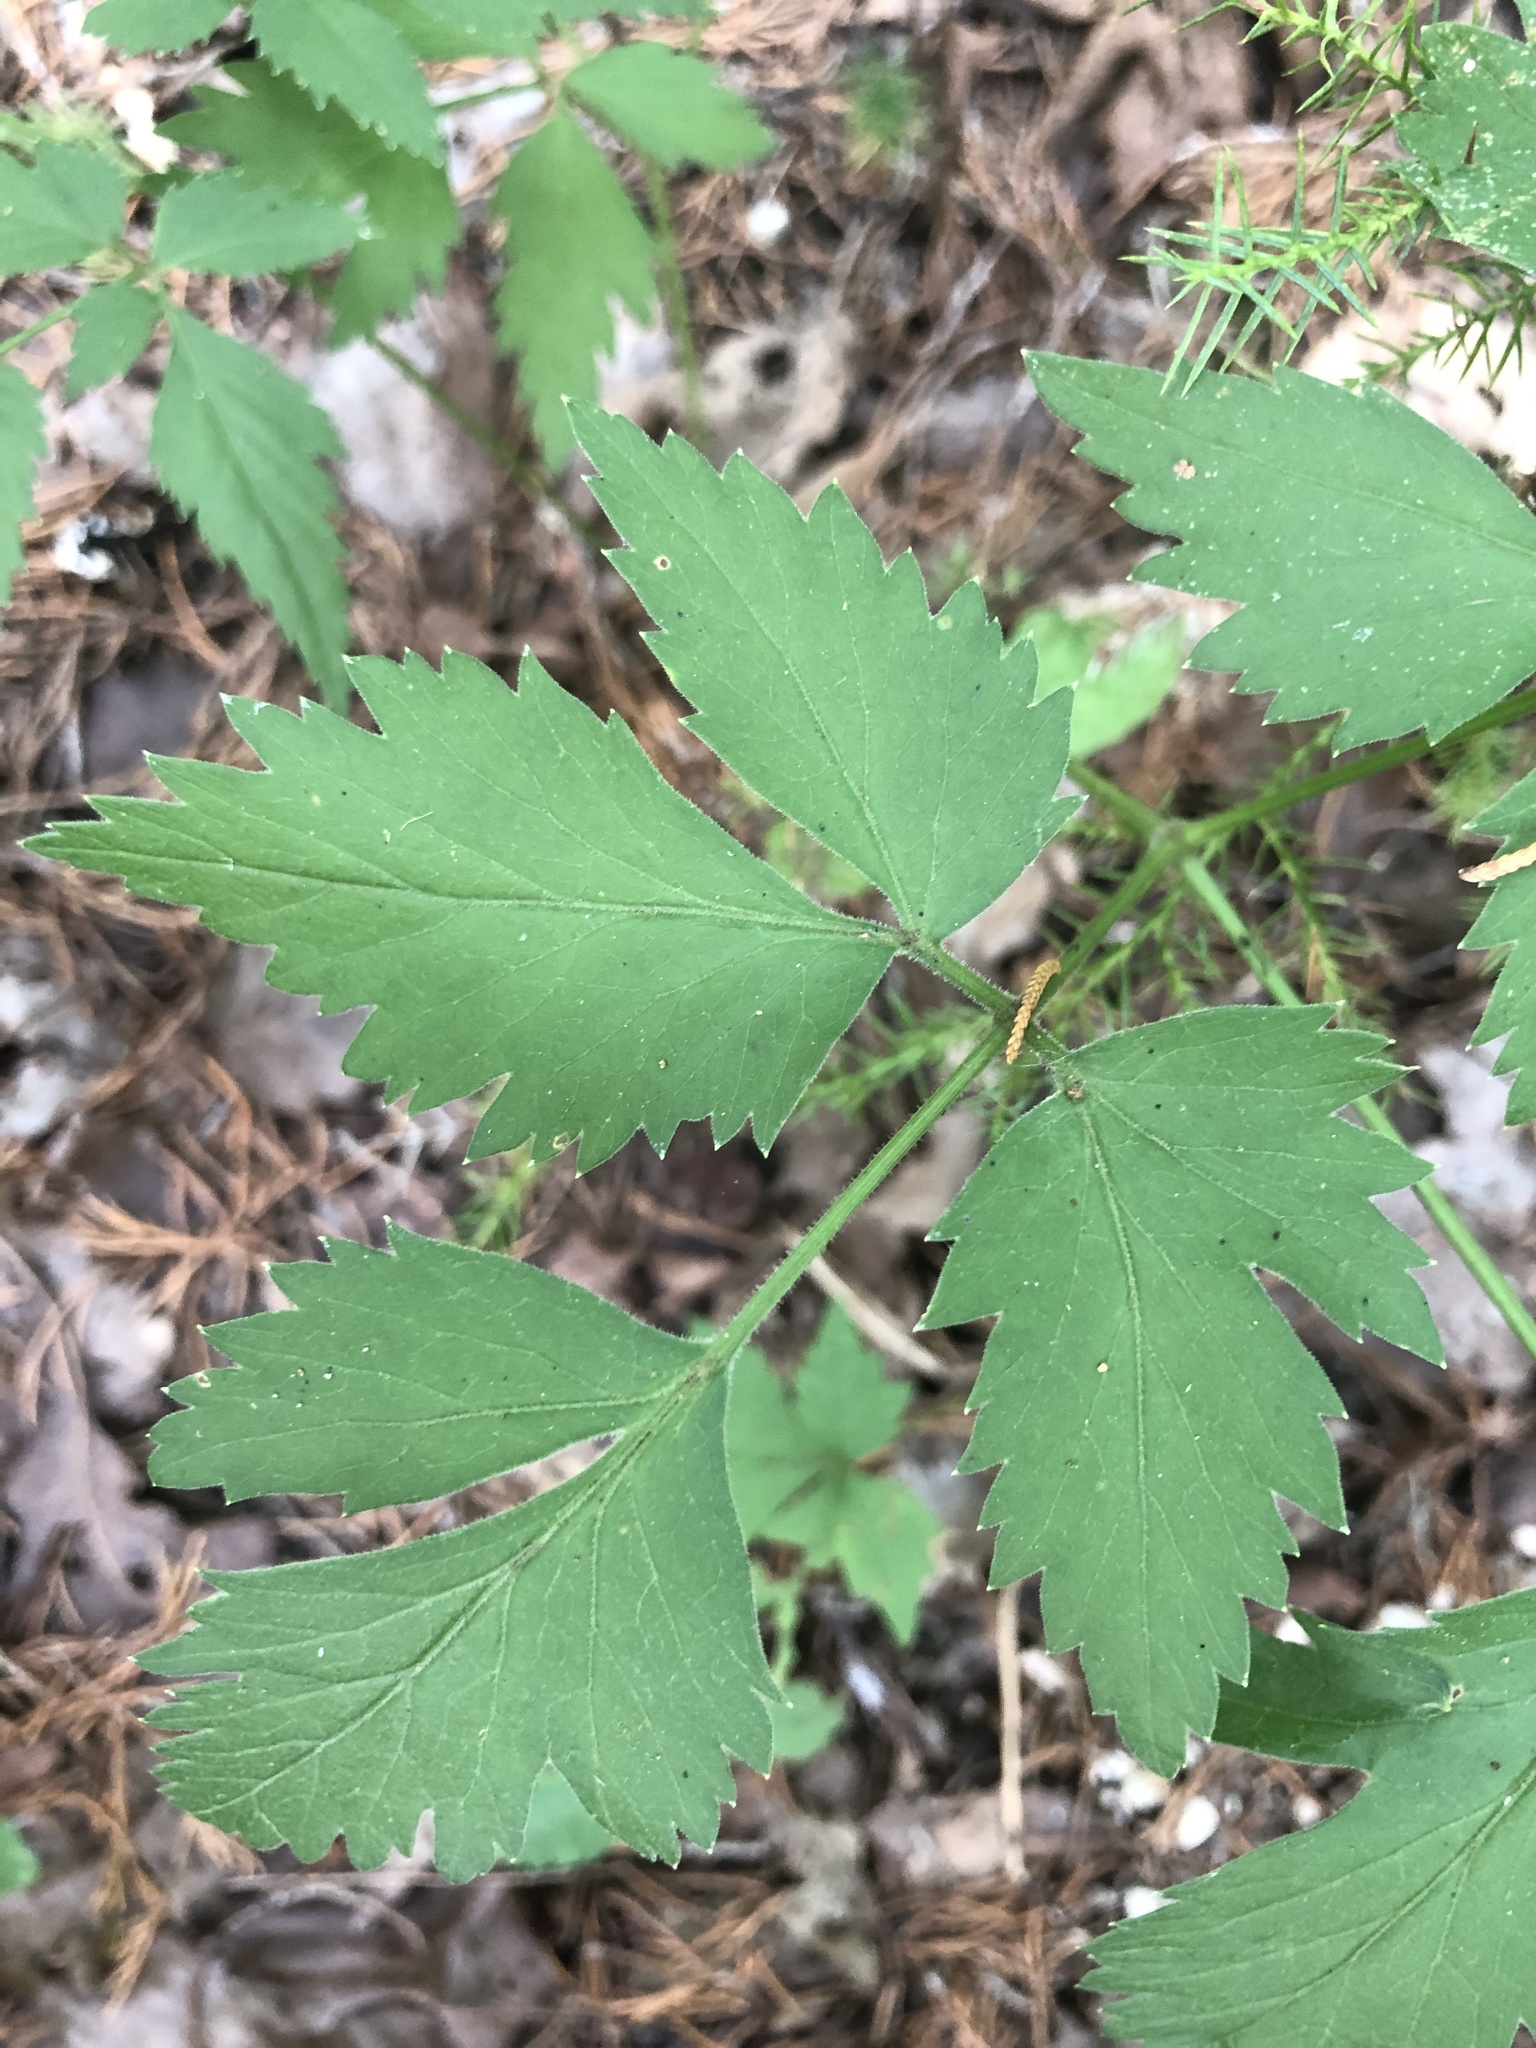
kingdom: Plantae
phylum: Tracheophyta
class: Magnoliopsida
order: Apiales
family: Apiaceae
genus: Thaspium
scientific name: Thaspium barbinode
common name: Bearded meadow-parsnip
